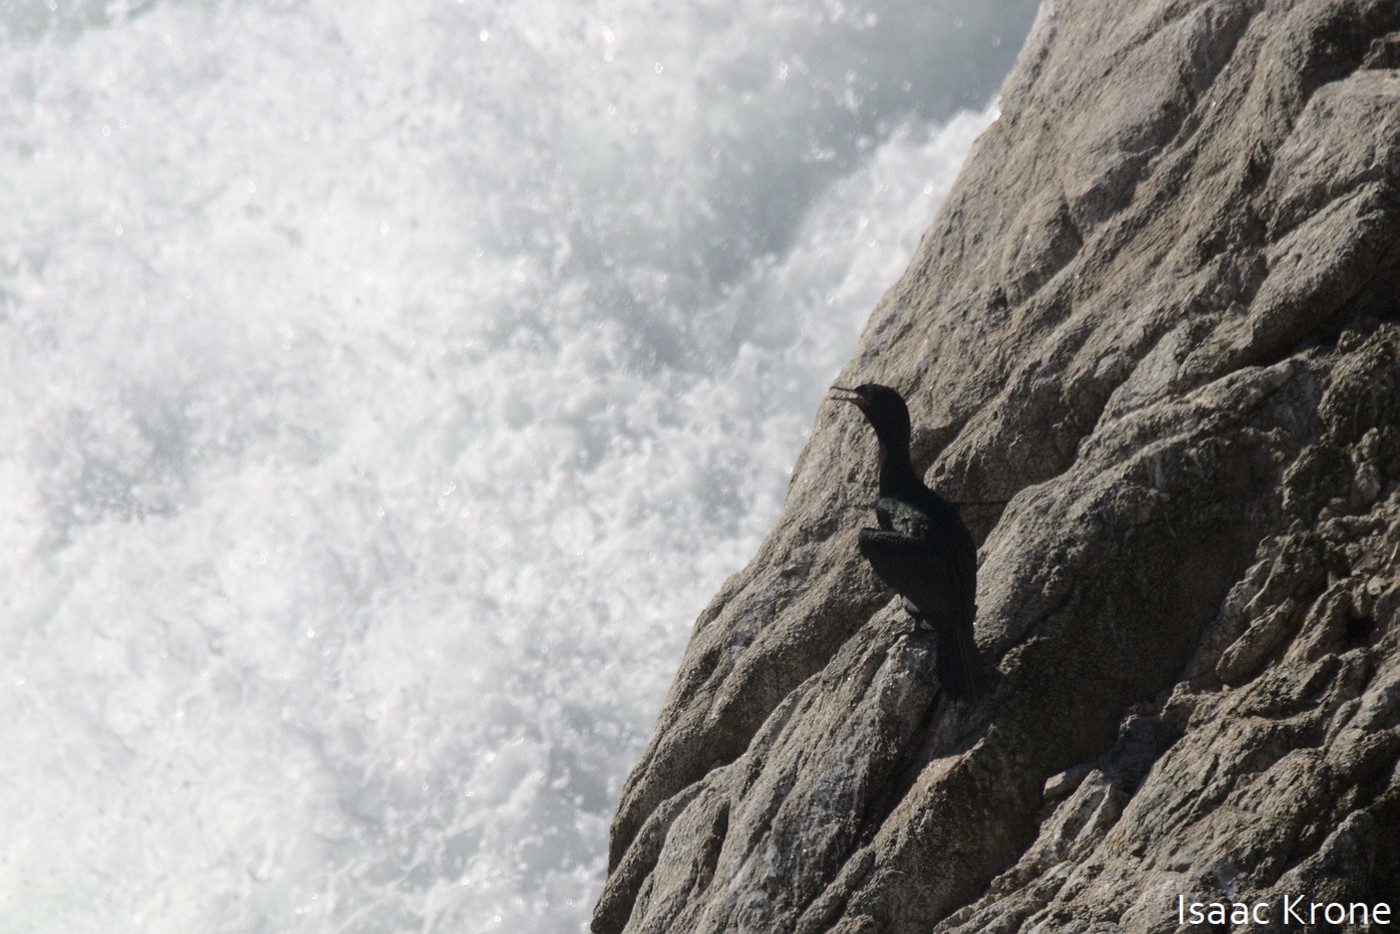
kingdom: Animalia
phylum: Chordata
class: Aves
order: Suliformes
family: Phalacrocoracidae
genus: Phalacrocorax
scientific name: Phalacrocorax pelagicus
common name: Pelagic cormorant
